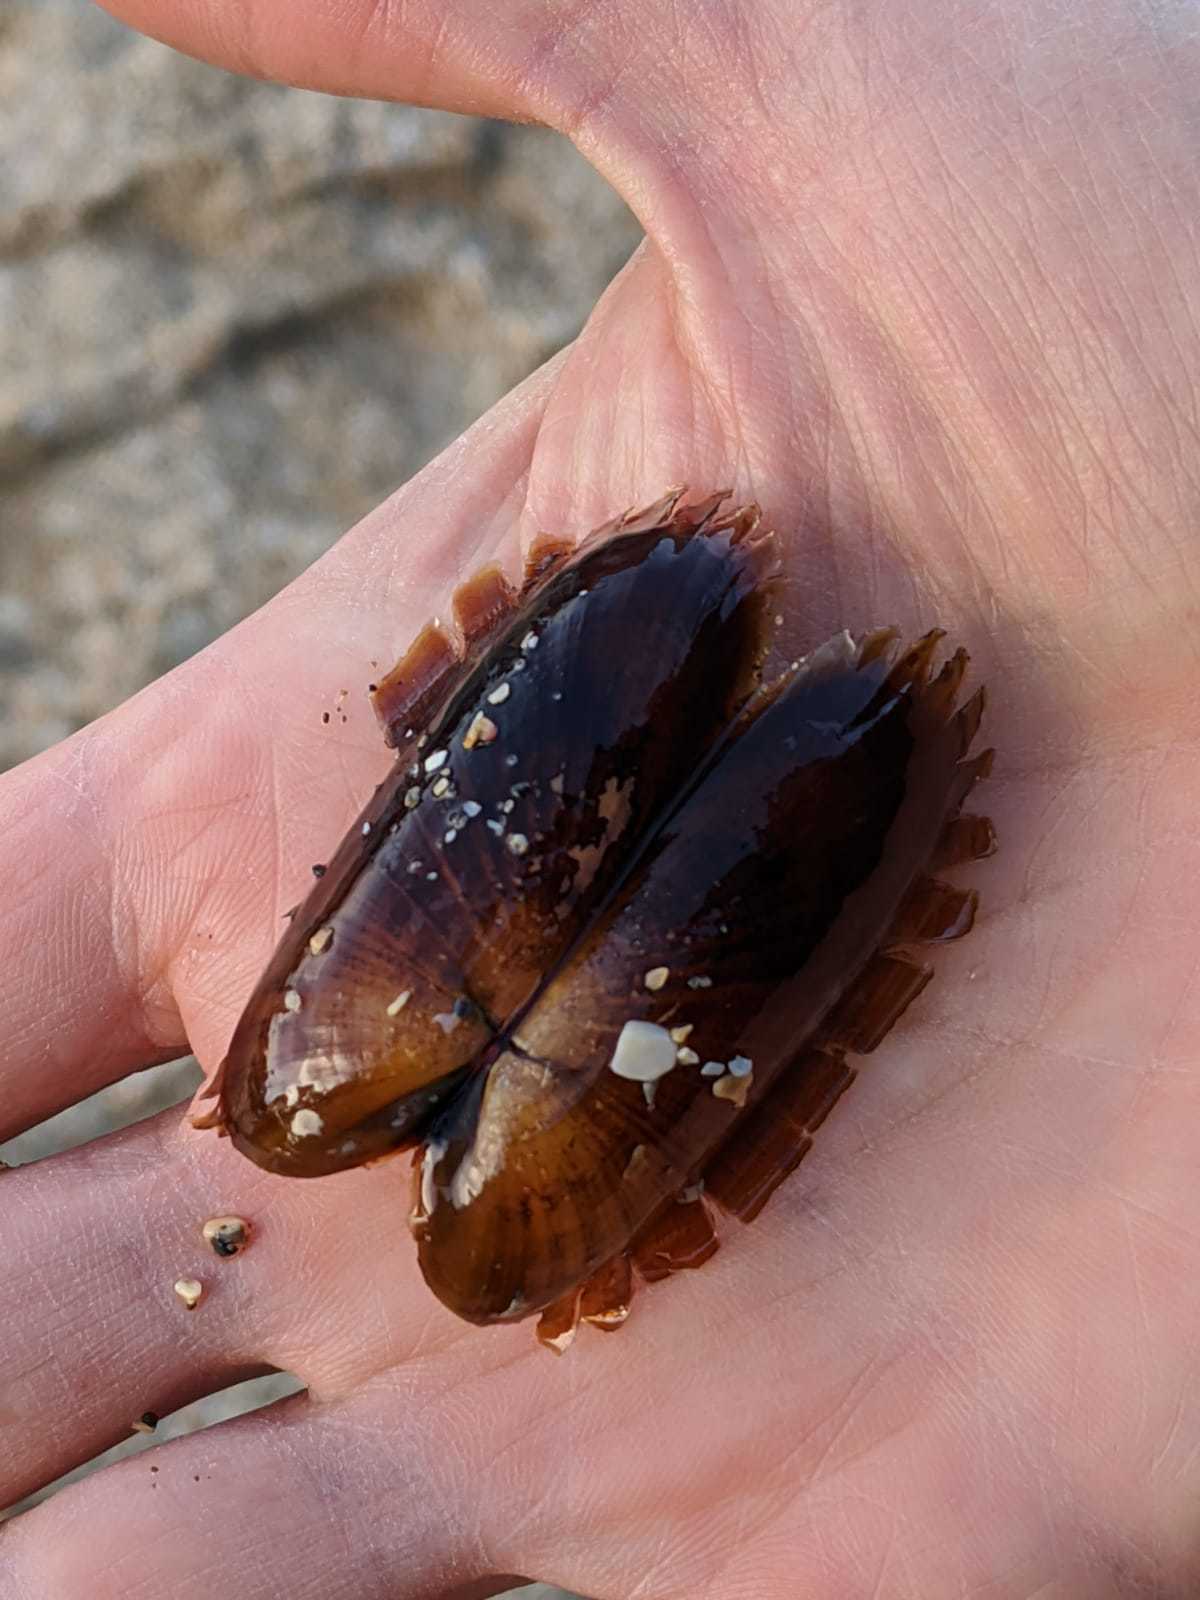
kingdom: Animalia
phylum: Mollusca
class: Bivalvia
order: Solemyida
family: Solemyidae
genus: Solemya
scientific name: Solemya parkinsonii
